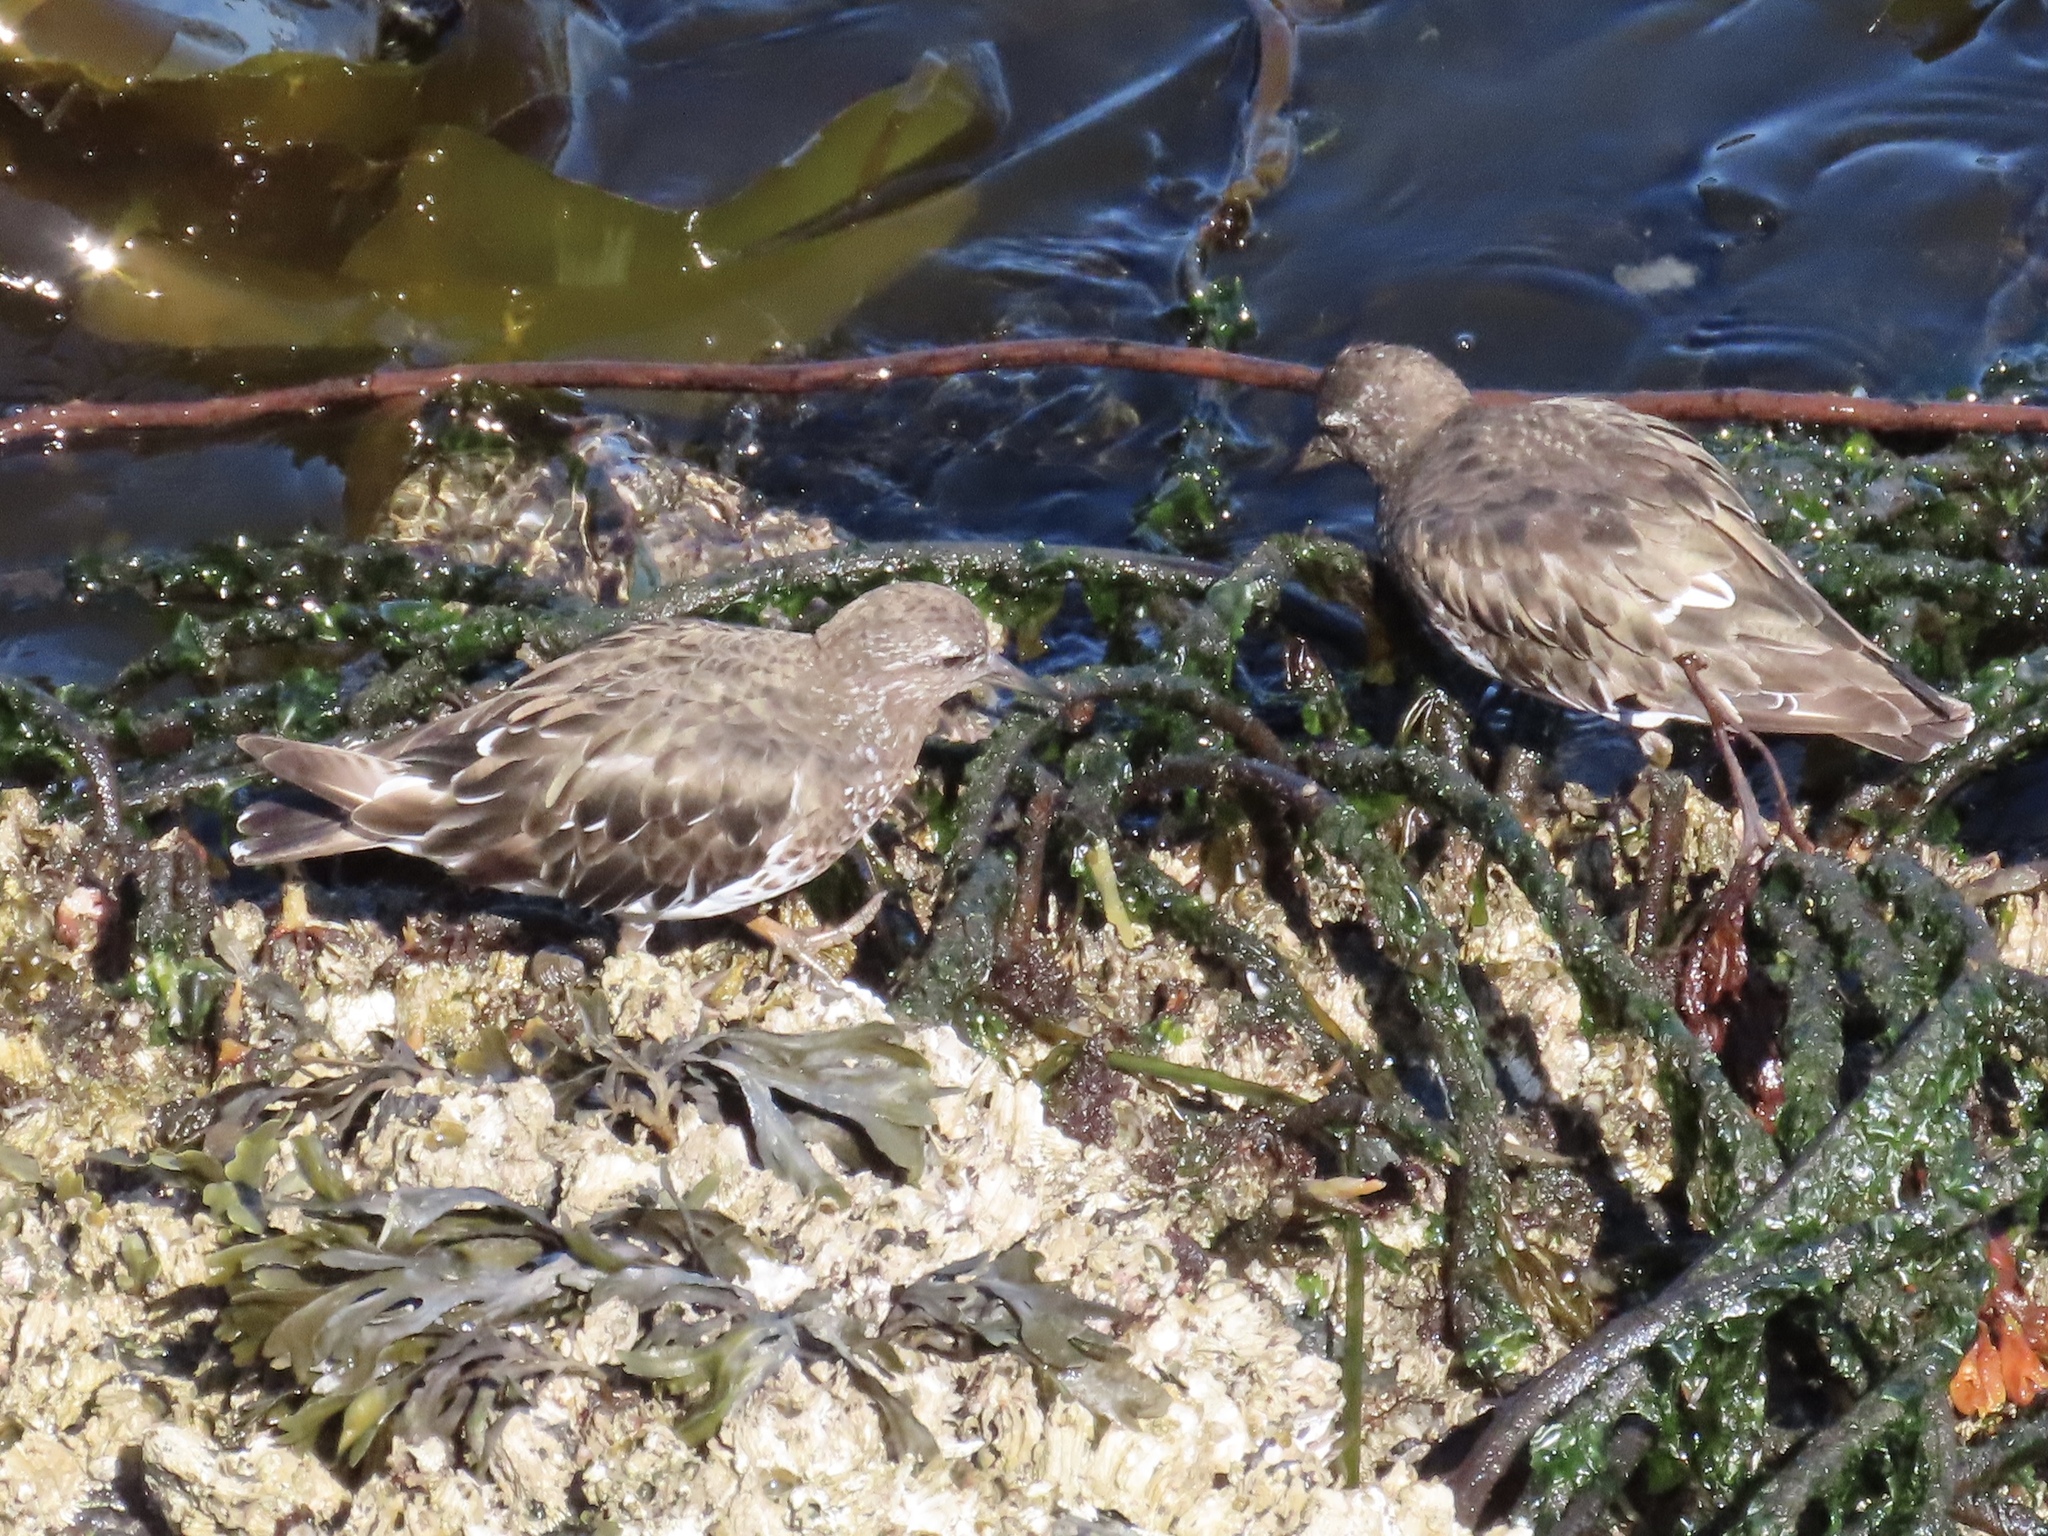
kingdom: Animalia
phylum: Chordata
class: Aves
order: Charadriiformes
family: Scolopacidae
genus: Arenaria
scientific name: Arenaria melanocephala
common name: Black turnstone
